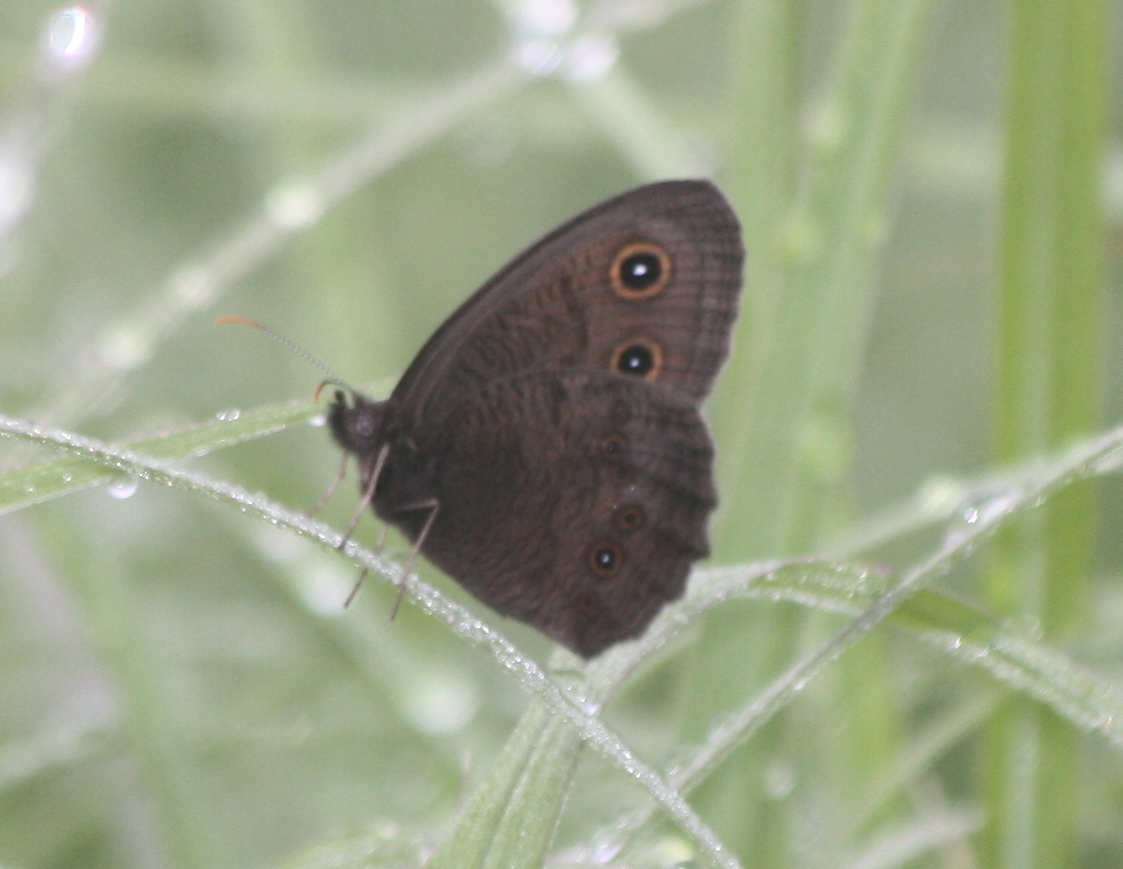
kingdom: Animalia
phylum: Arthropoda
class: Insecta
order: Lepidoptera
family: Nymphalidae
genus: Cercyonis
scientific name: Cercyonis pegala
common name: Common wood-nymph
